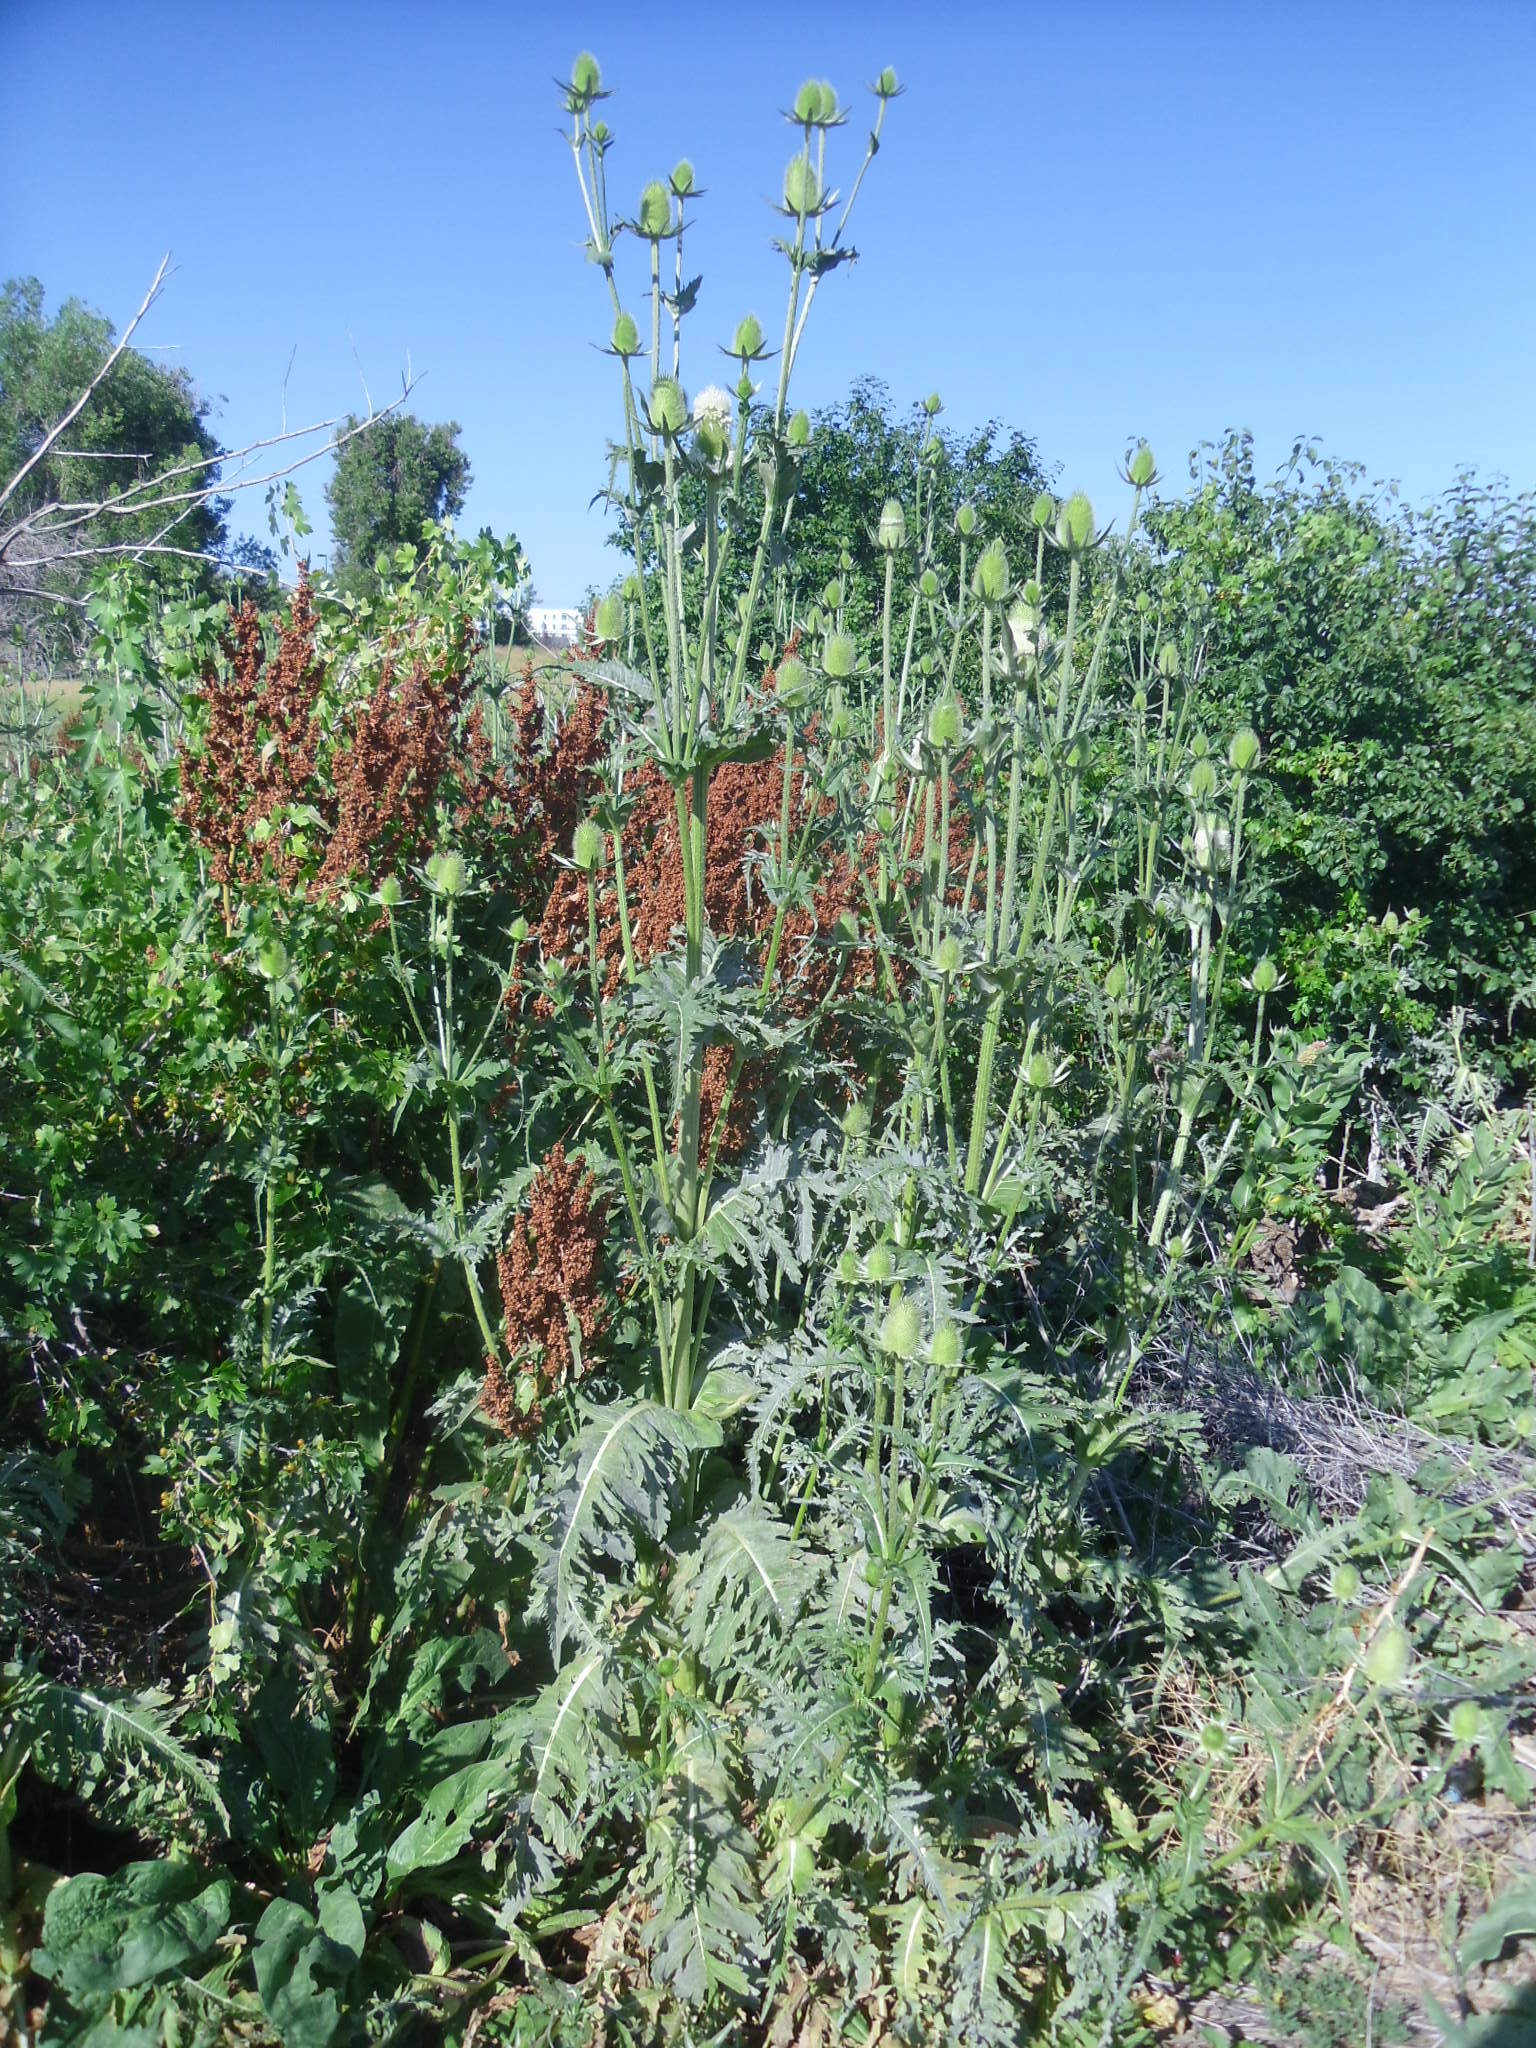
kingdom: Plantae
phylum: Tracheophyta
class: Magnoliopsida
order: Dipsacales
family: Caprifoliaceae
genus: Dipsacus
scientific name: Dipsacus laciniatus
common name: Cut-leaved teasel
